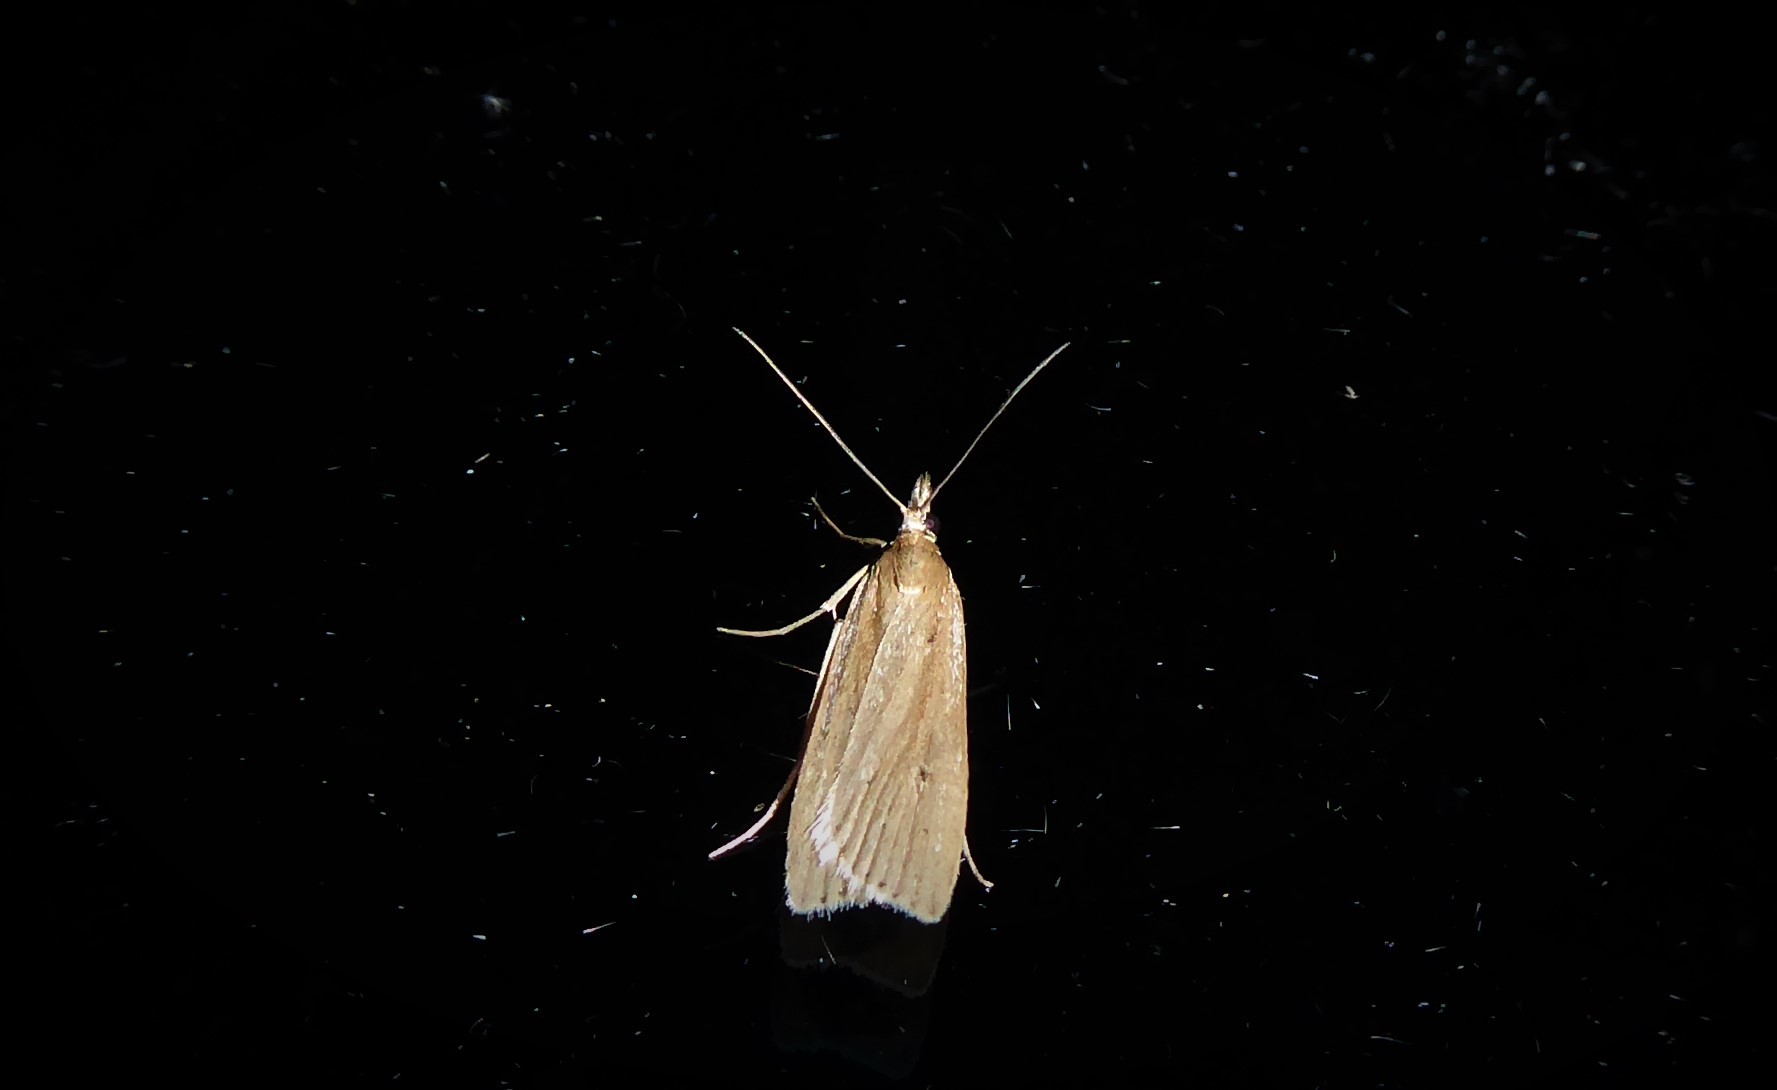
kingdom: Animalia
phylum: Arthropoda
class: Insecta
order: Lepidoptera
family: Crambidae
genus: Eudonia
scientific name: Eudonia sabulosella
